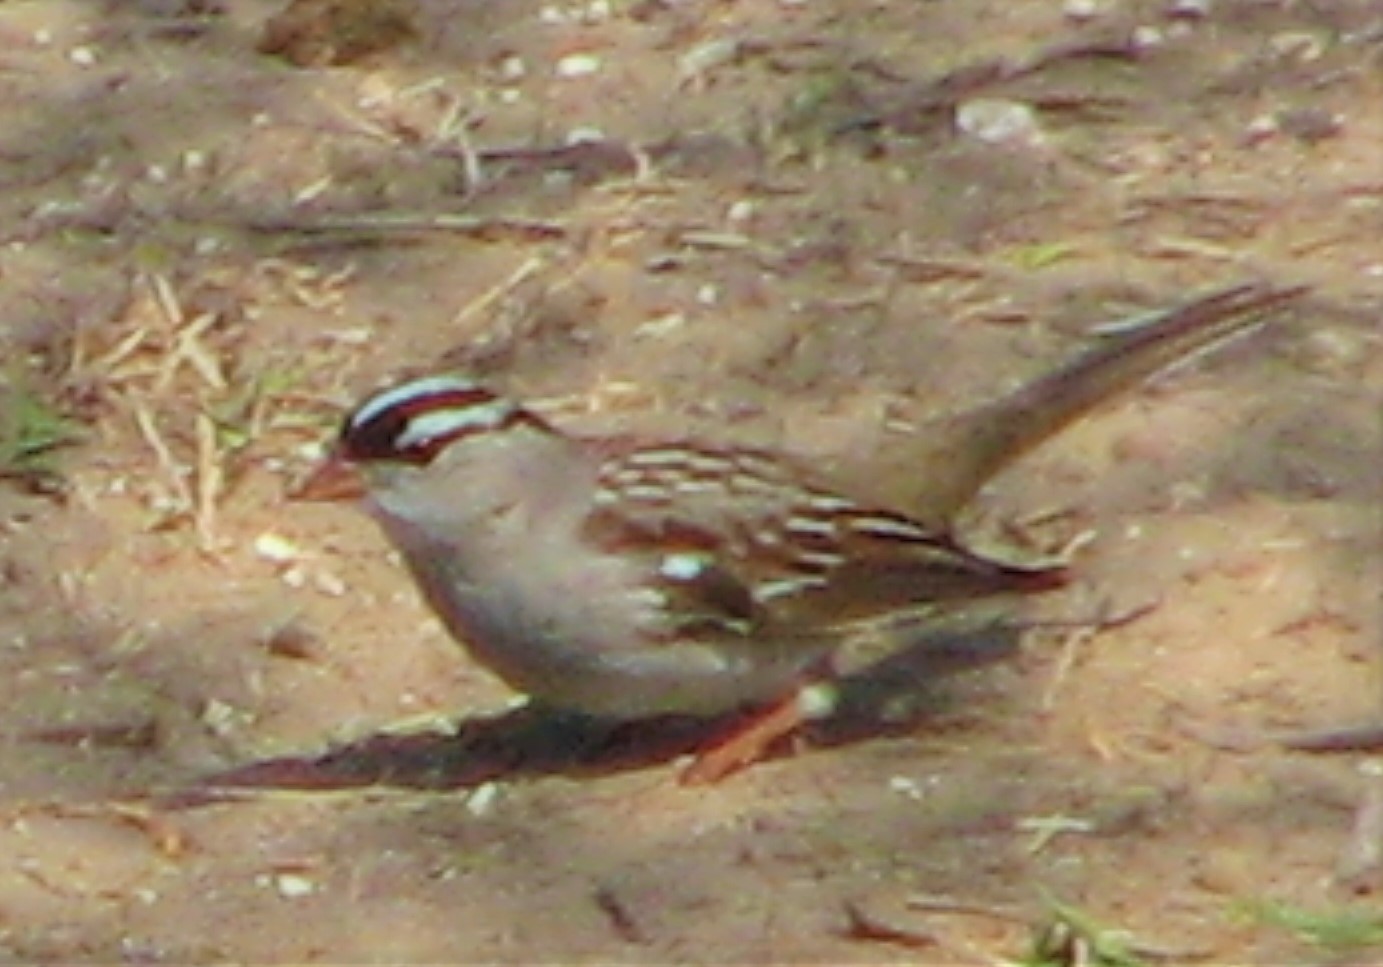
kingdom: Animalia
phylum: Chordata
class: Aves
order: Passeriformes
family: Passerellidae
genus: Zonotrichia
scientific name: Zonotrichia leucophrys
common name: White-crowned sparrow
